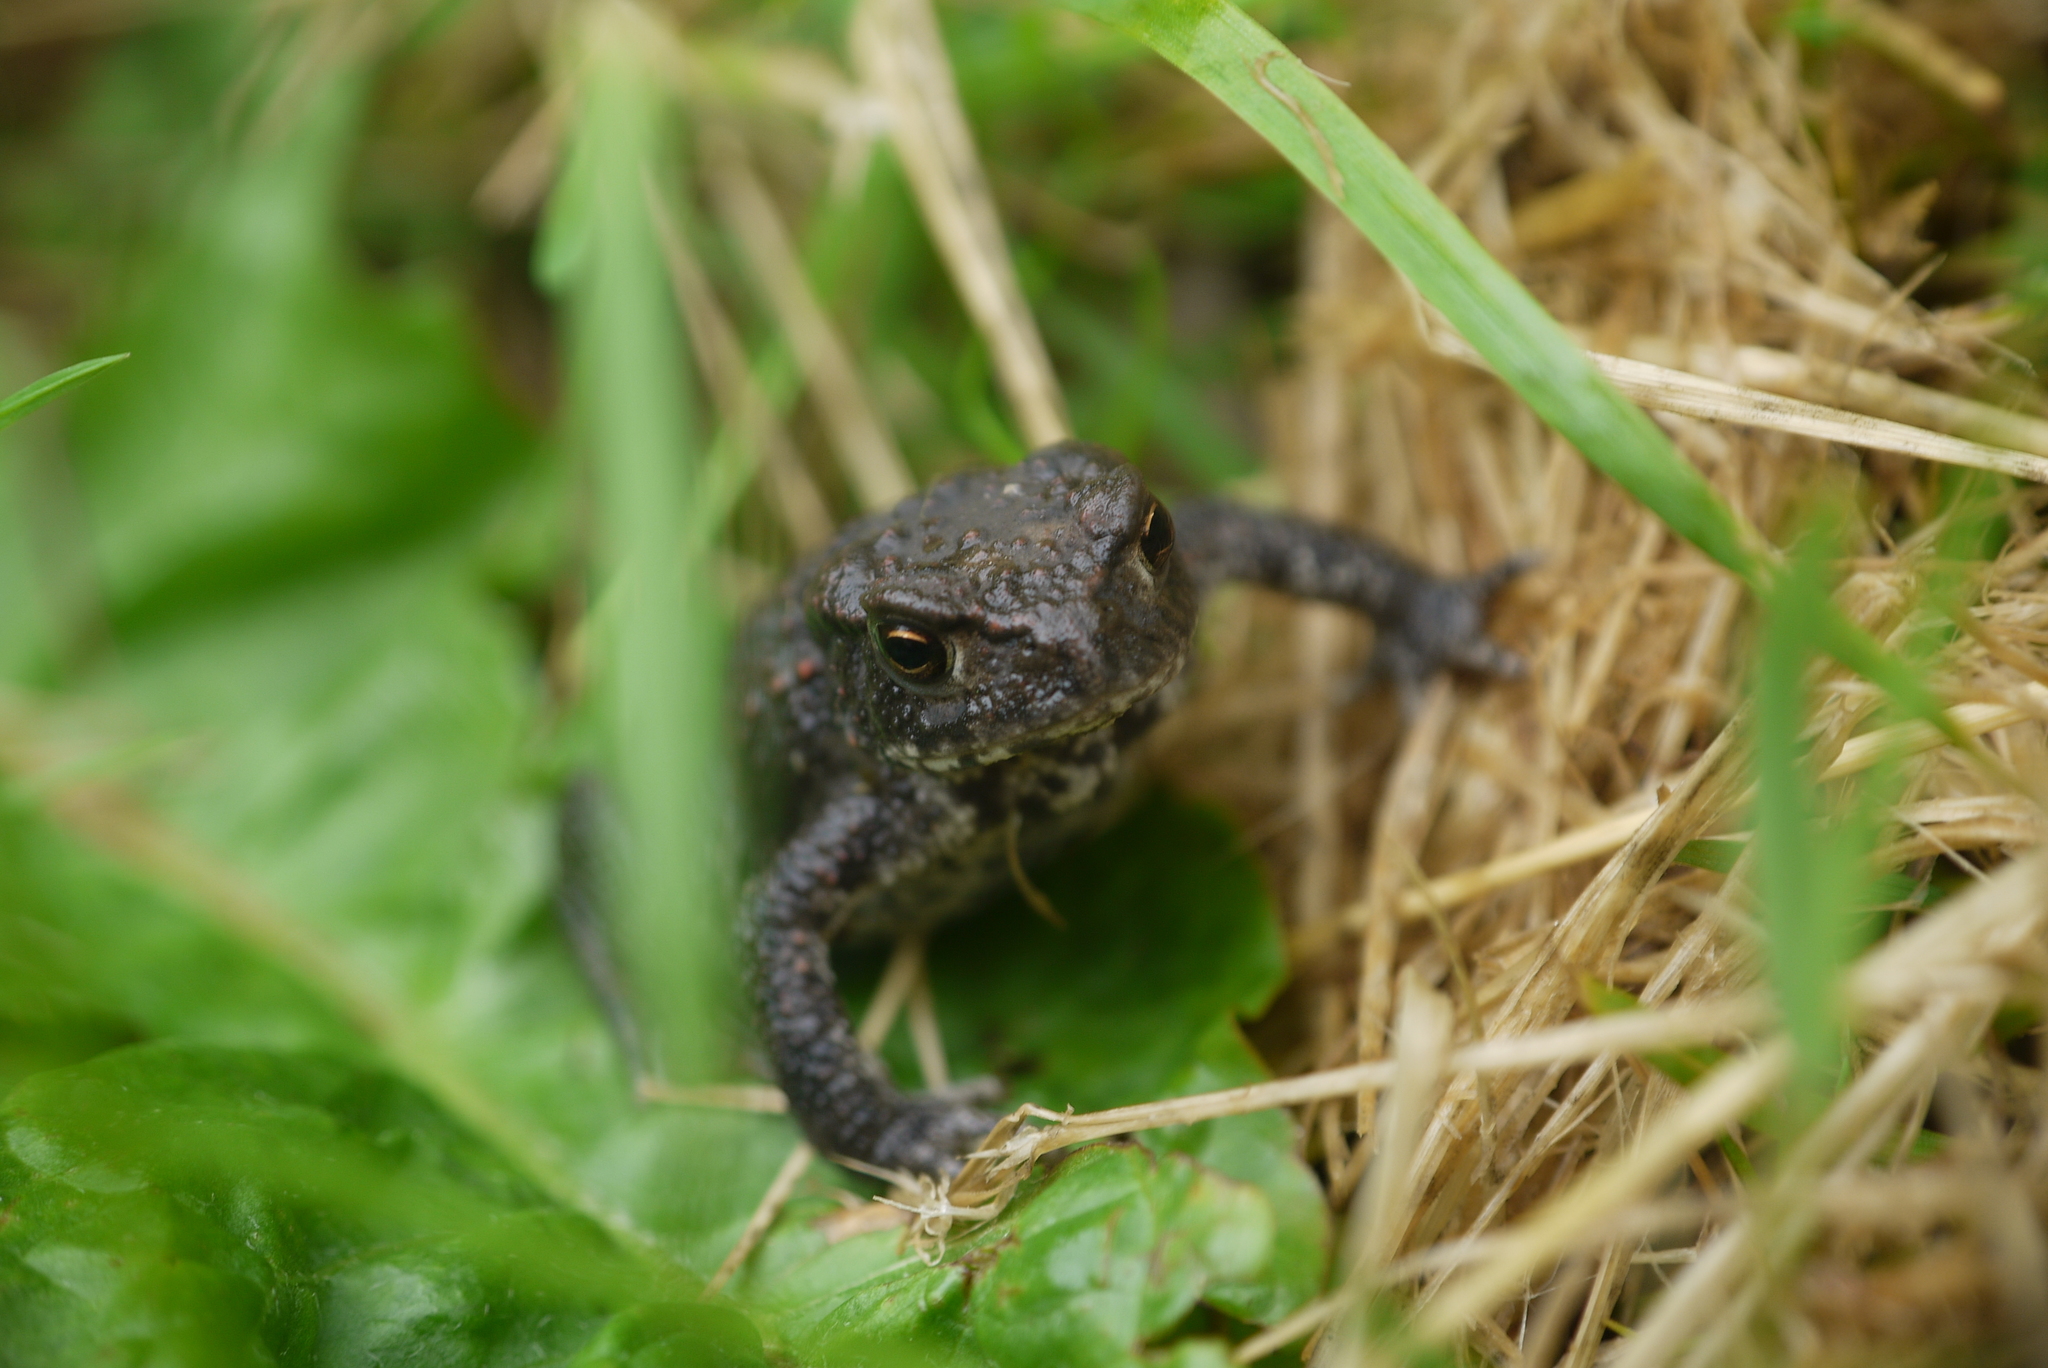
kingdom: Animalia
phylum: Chordata
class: Amphibia
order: Anura
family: Bufonidae
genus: Bufo
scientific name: Bufo bufo
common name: Common toad
